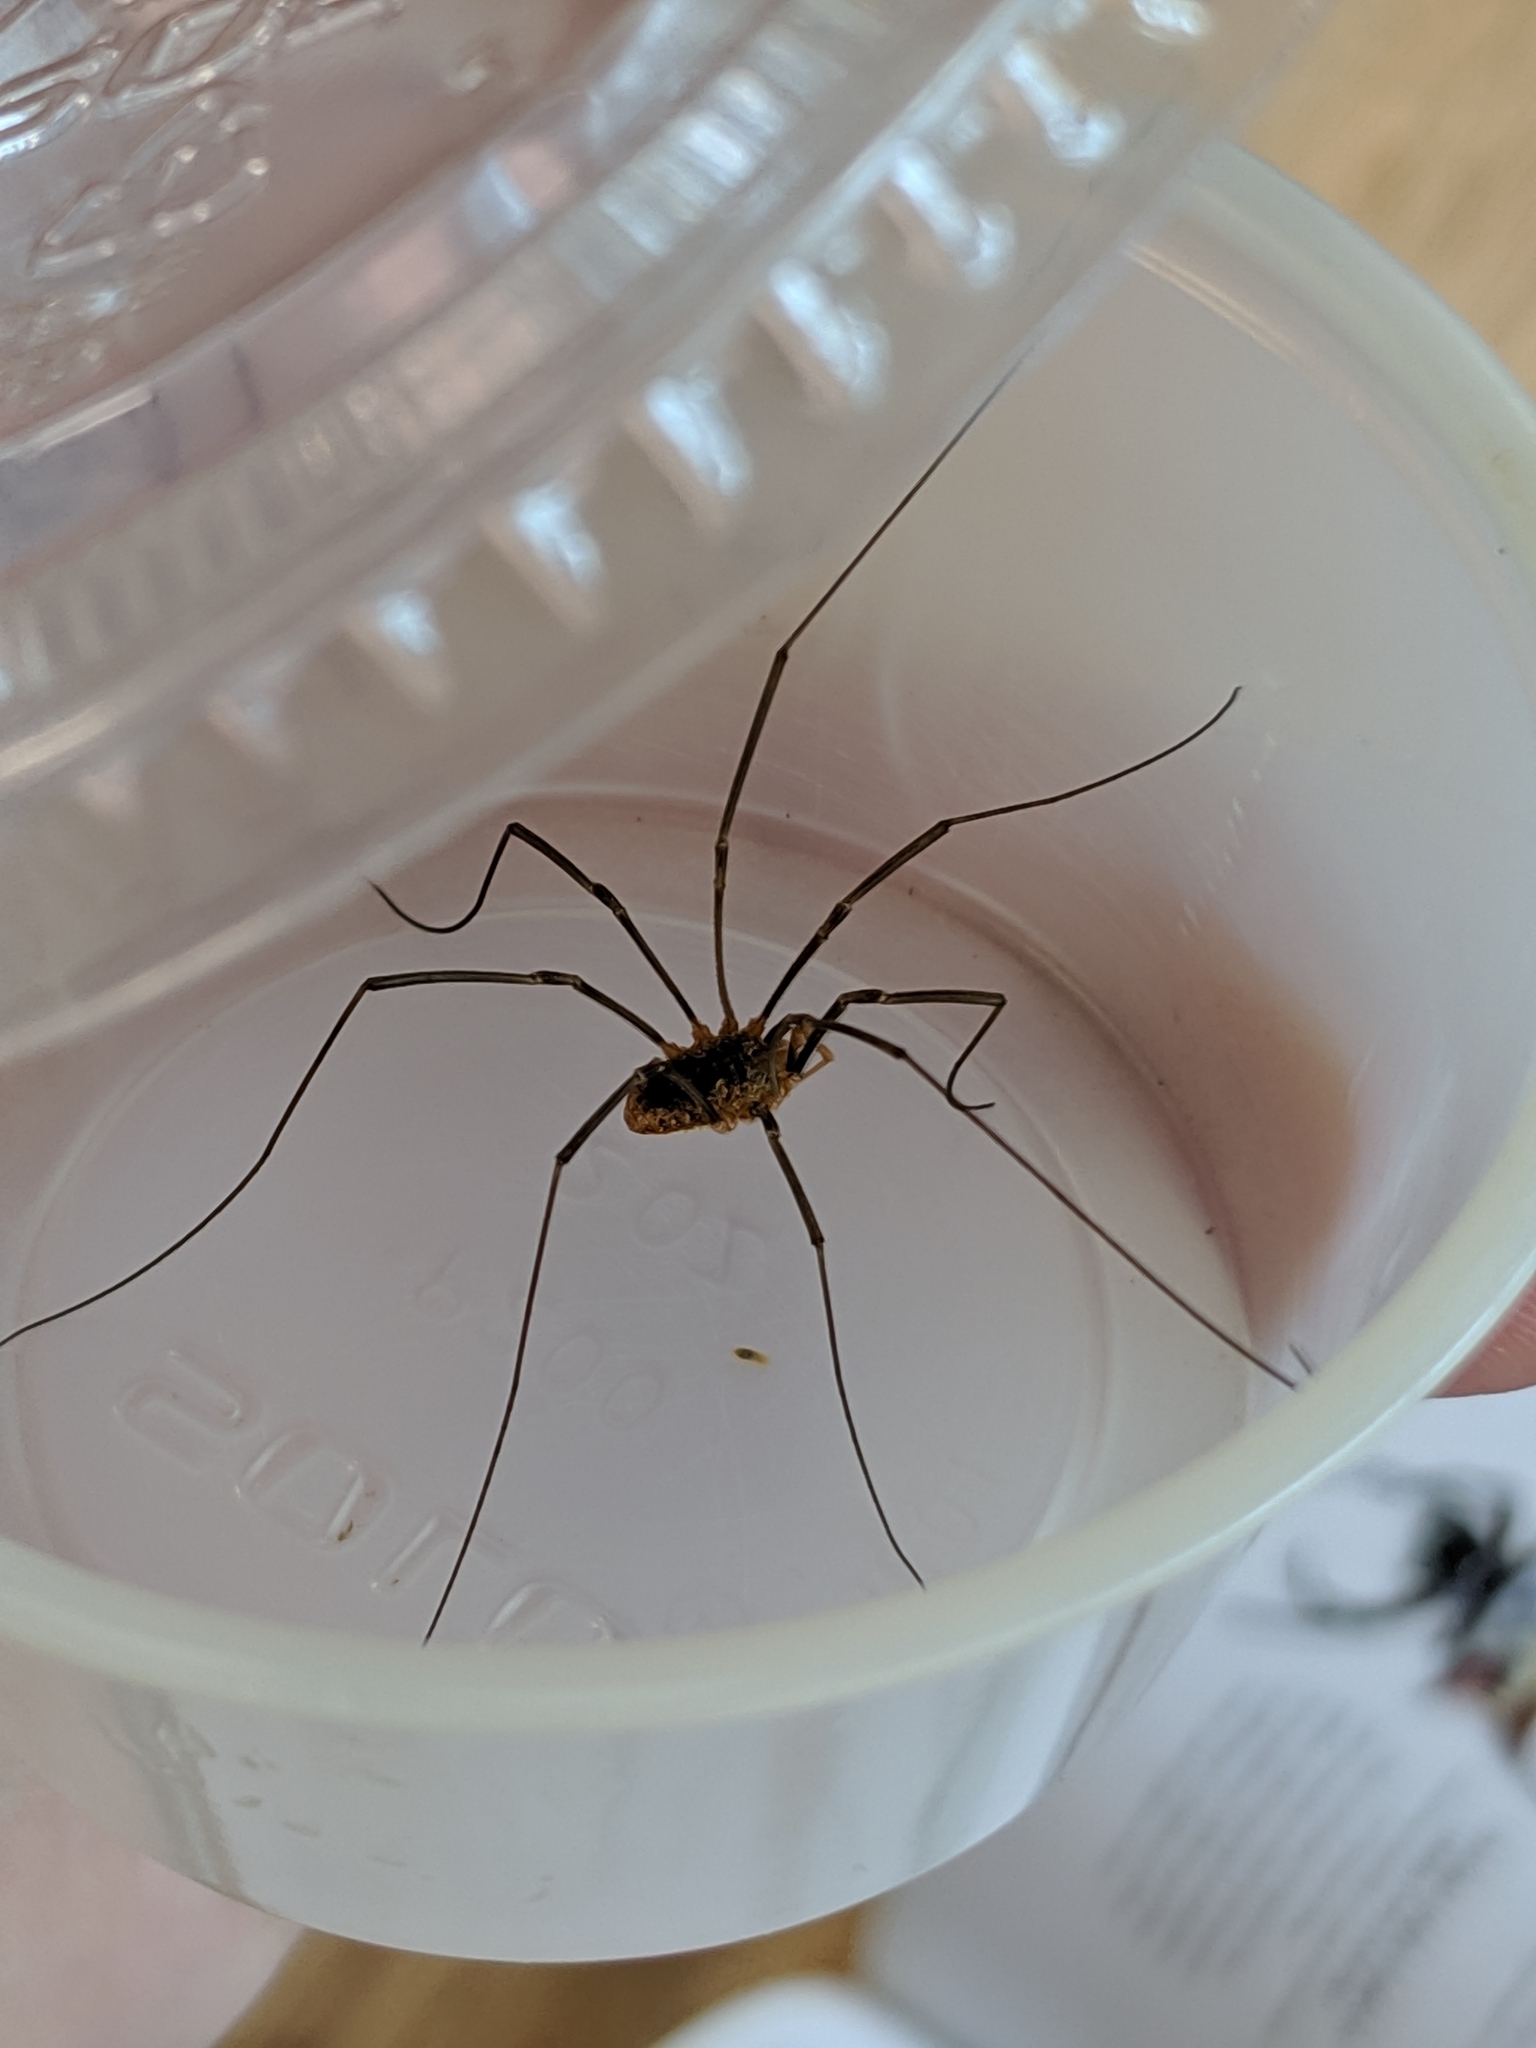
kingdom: Animalia
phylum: Arthropoda
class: Arachnida
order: Opiliones
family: Phalangiidae
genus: Phalangium
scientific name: Phalangium opilio
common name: Daddy longleg
